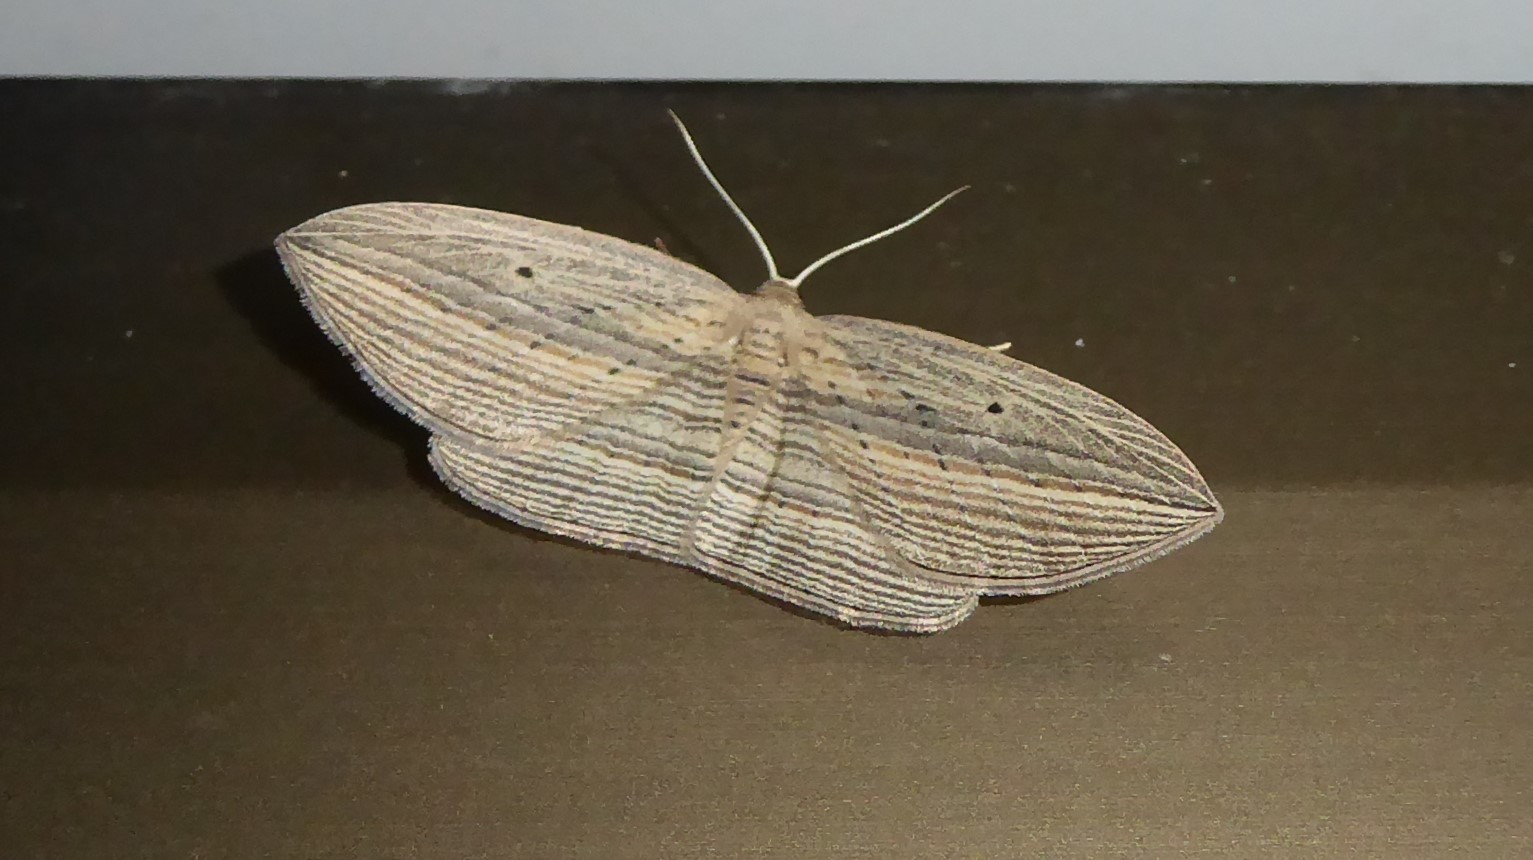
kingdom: Animalia
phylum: Arthropoda
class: Insecta
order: Lepidoptera
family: Geometridae
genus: Epiphryne
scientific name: Epiphryne verriculata
